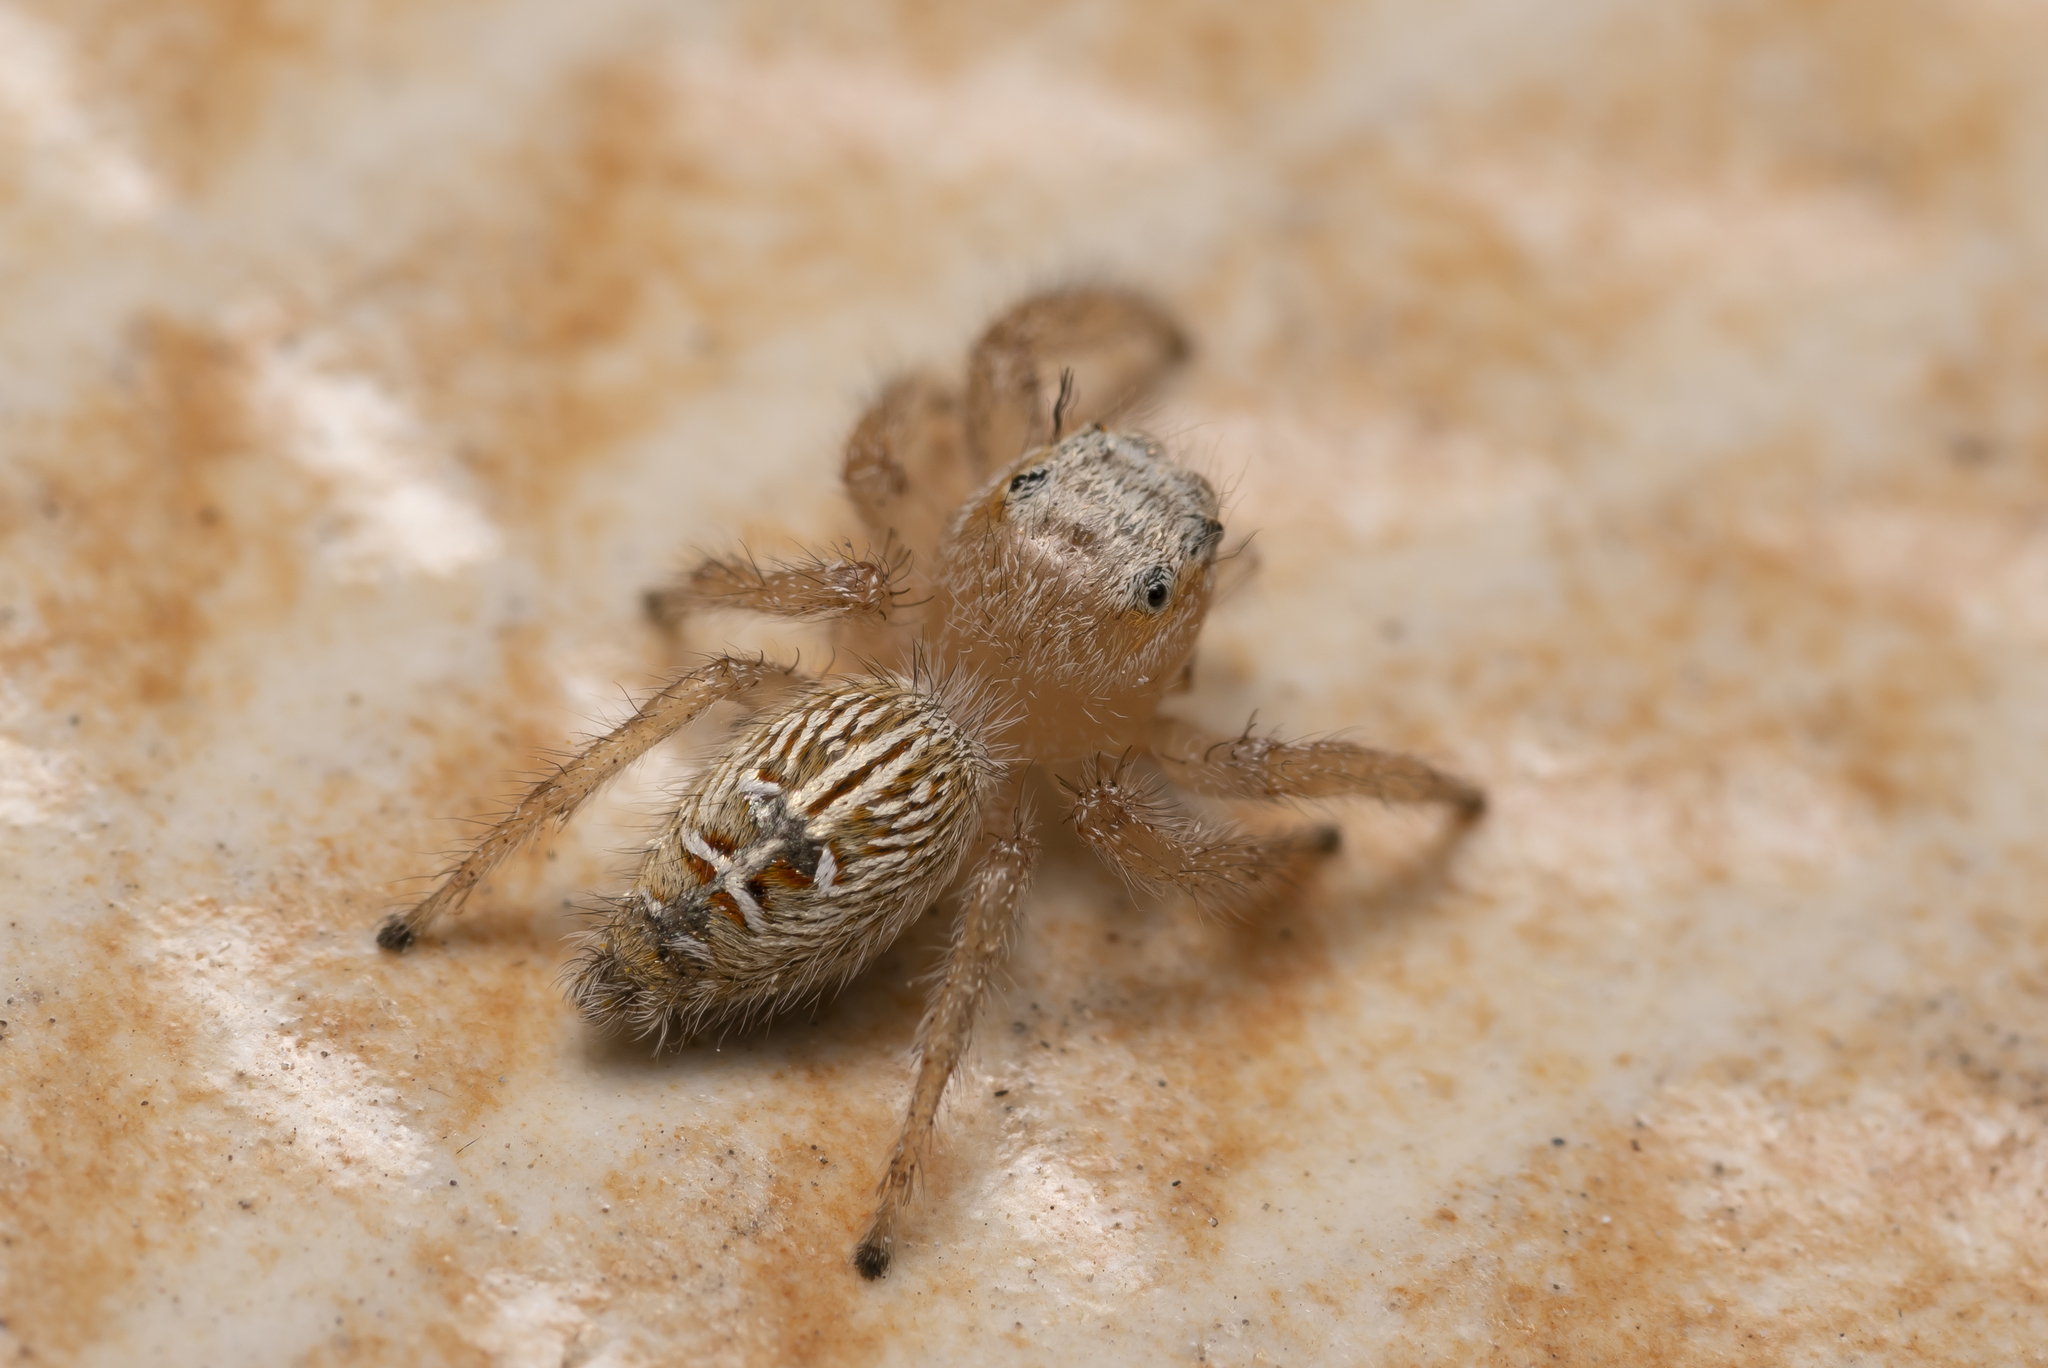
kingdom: Animalia
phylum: Arthropoda
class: Arachnida
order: Araneae
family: Salticidae
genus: Thyene
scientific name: Thyene imperialis
